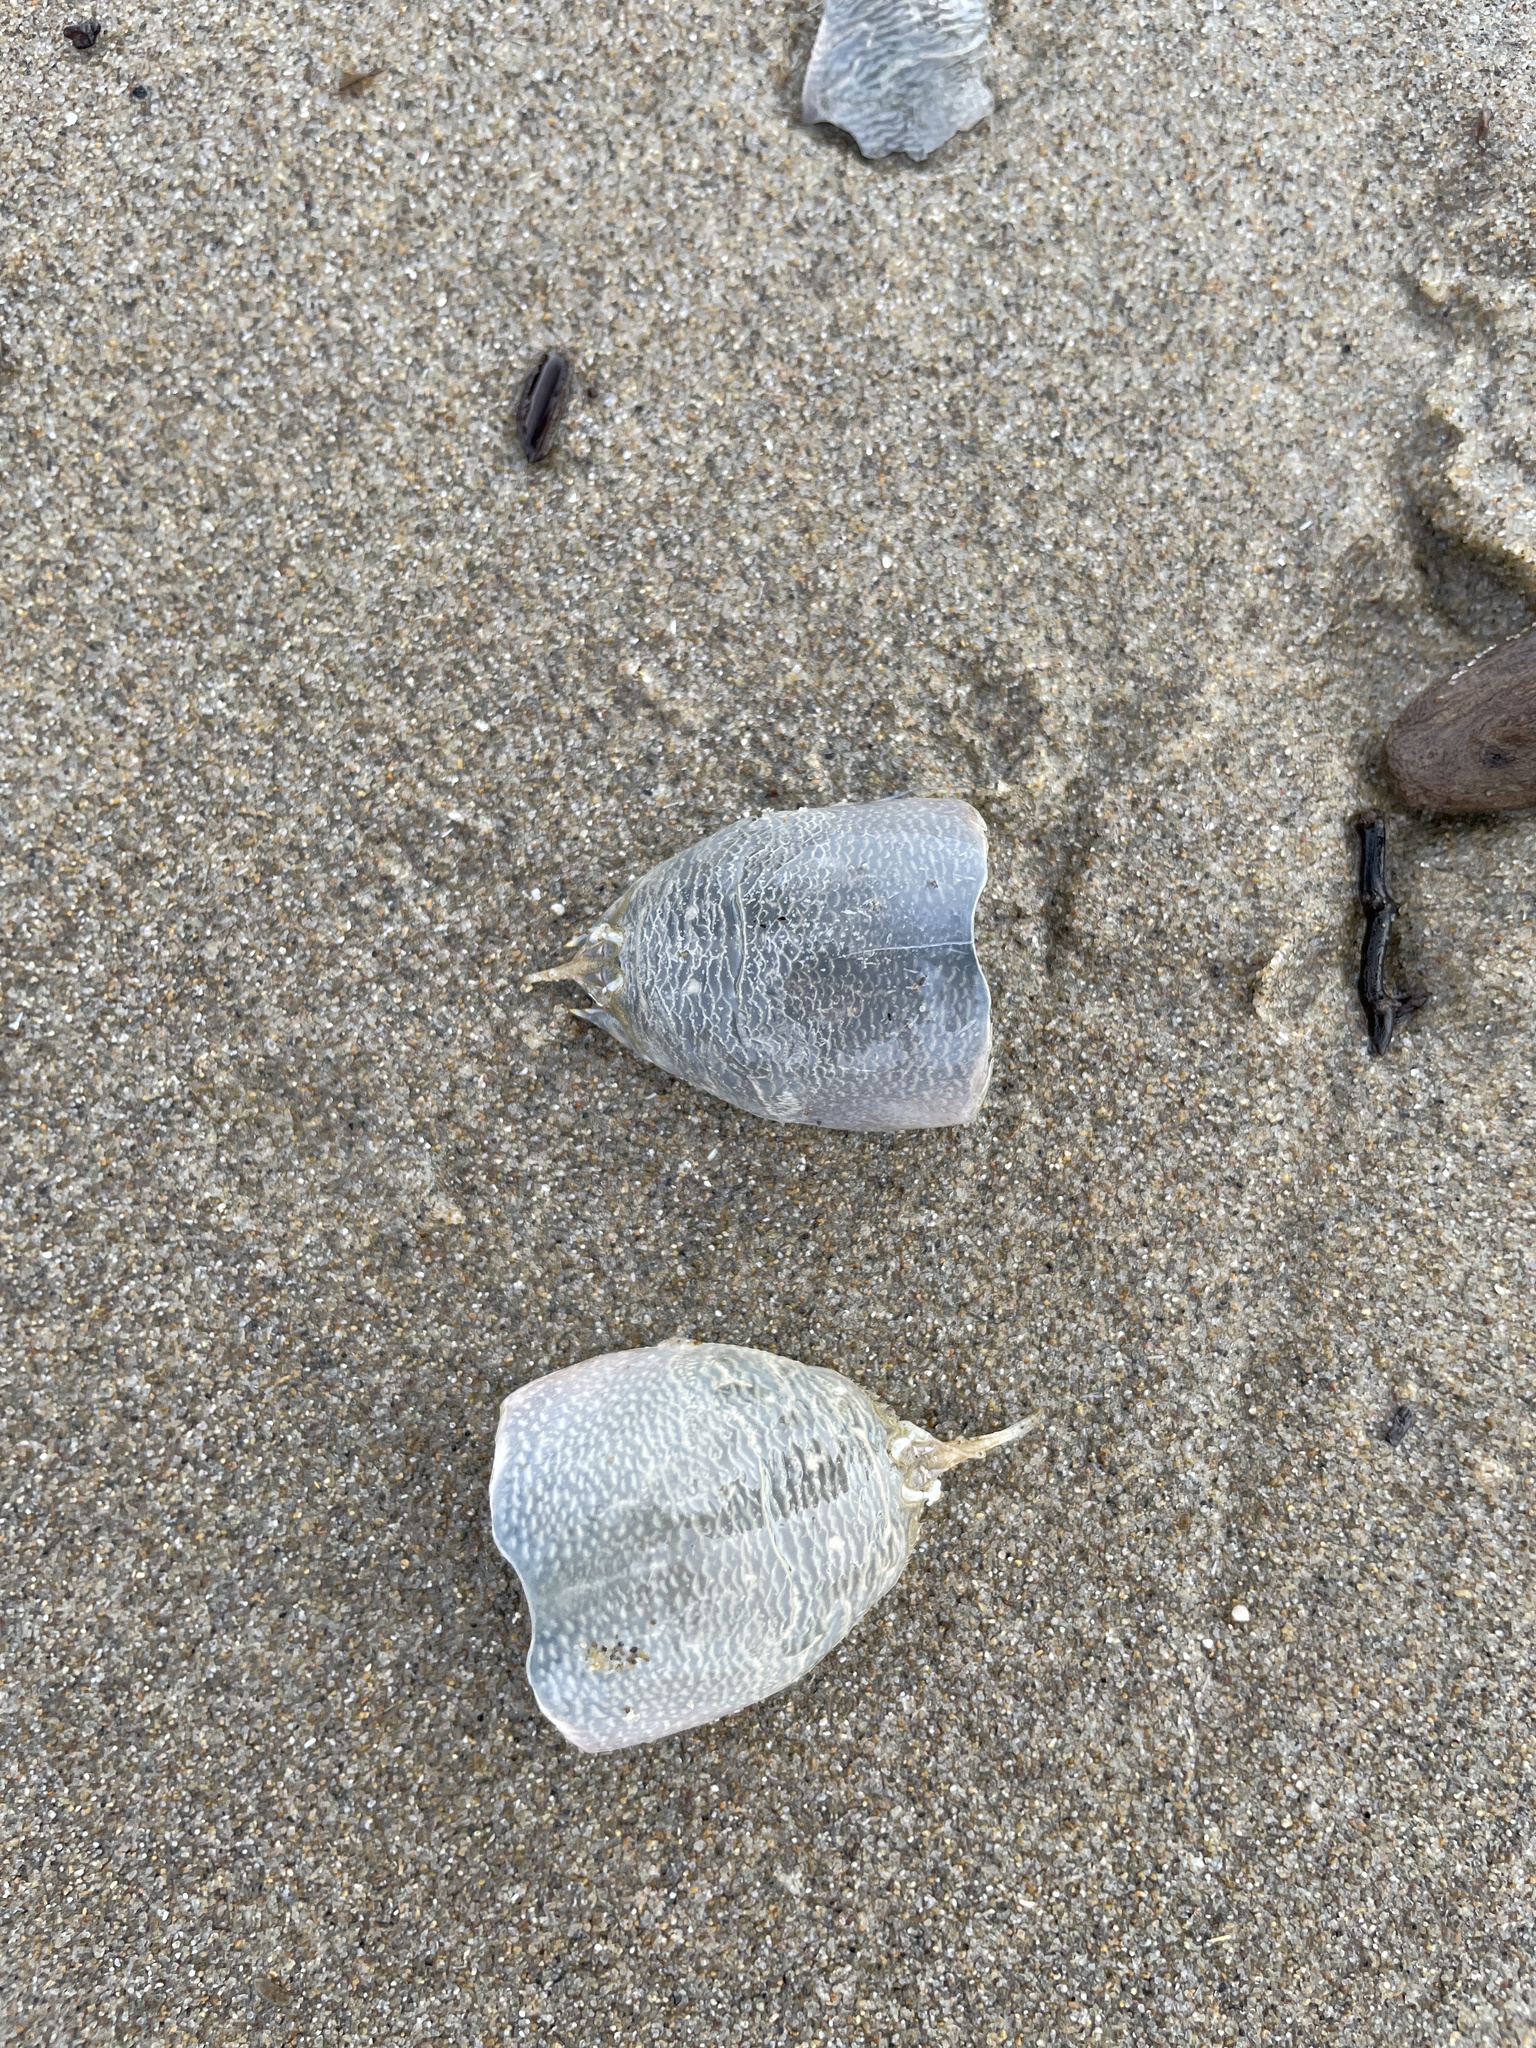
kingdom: Animalia
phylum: Arthropoda
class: Malacostraca
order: Decapoda
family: Hippidae
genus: Emerita
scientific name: Emerita analoga
